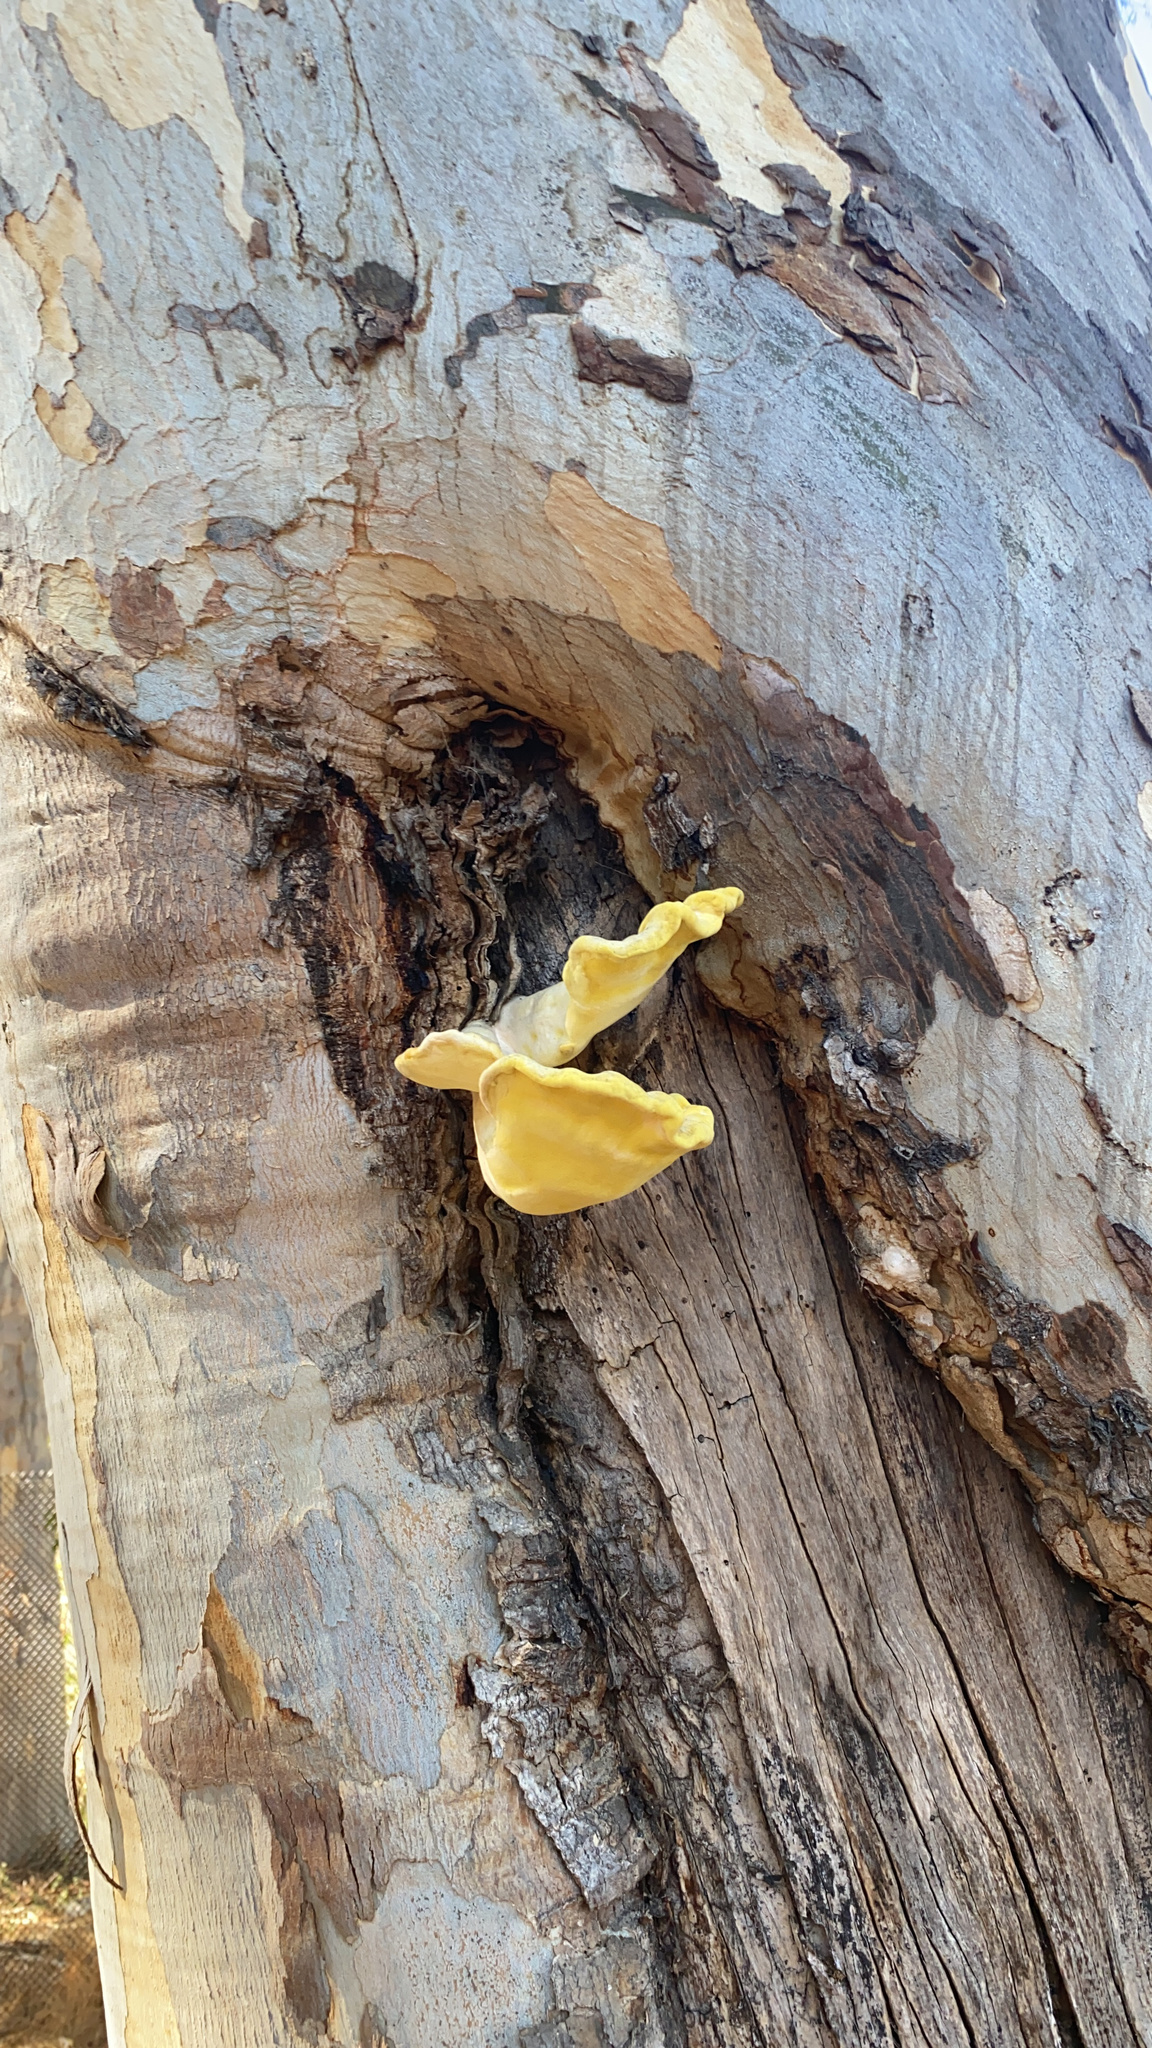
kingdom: Fungi
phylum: Basidiomycota
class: Agaricomycetes
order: Polyporales
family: Laetiporaceae
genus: Laetiporus
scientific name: Laetiporus gilbertsonii
